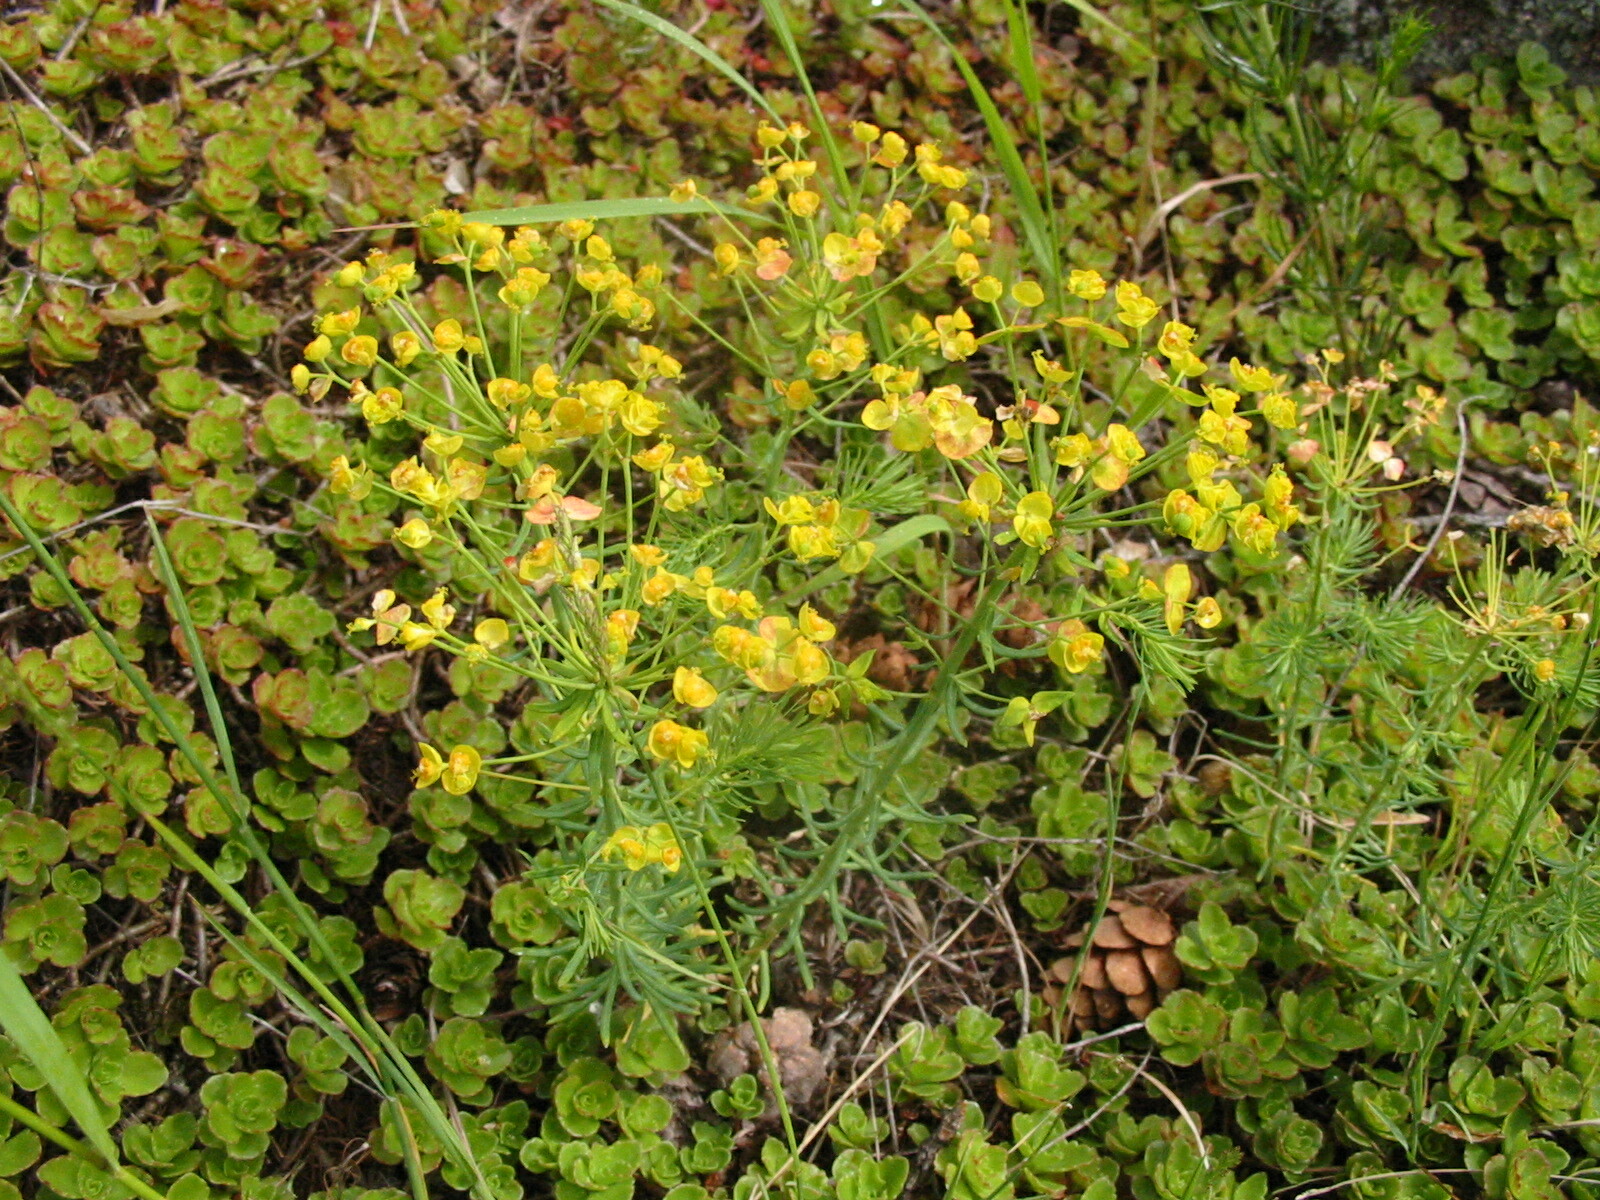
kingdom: Plantae
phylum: Tracheophyta
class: Magnoliopsida
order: Malpighiales
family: Euphorbiaceae
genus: Euphorbia
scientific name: Euphorbia cyparissias
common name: Cypress spurge
